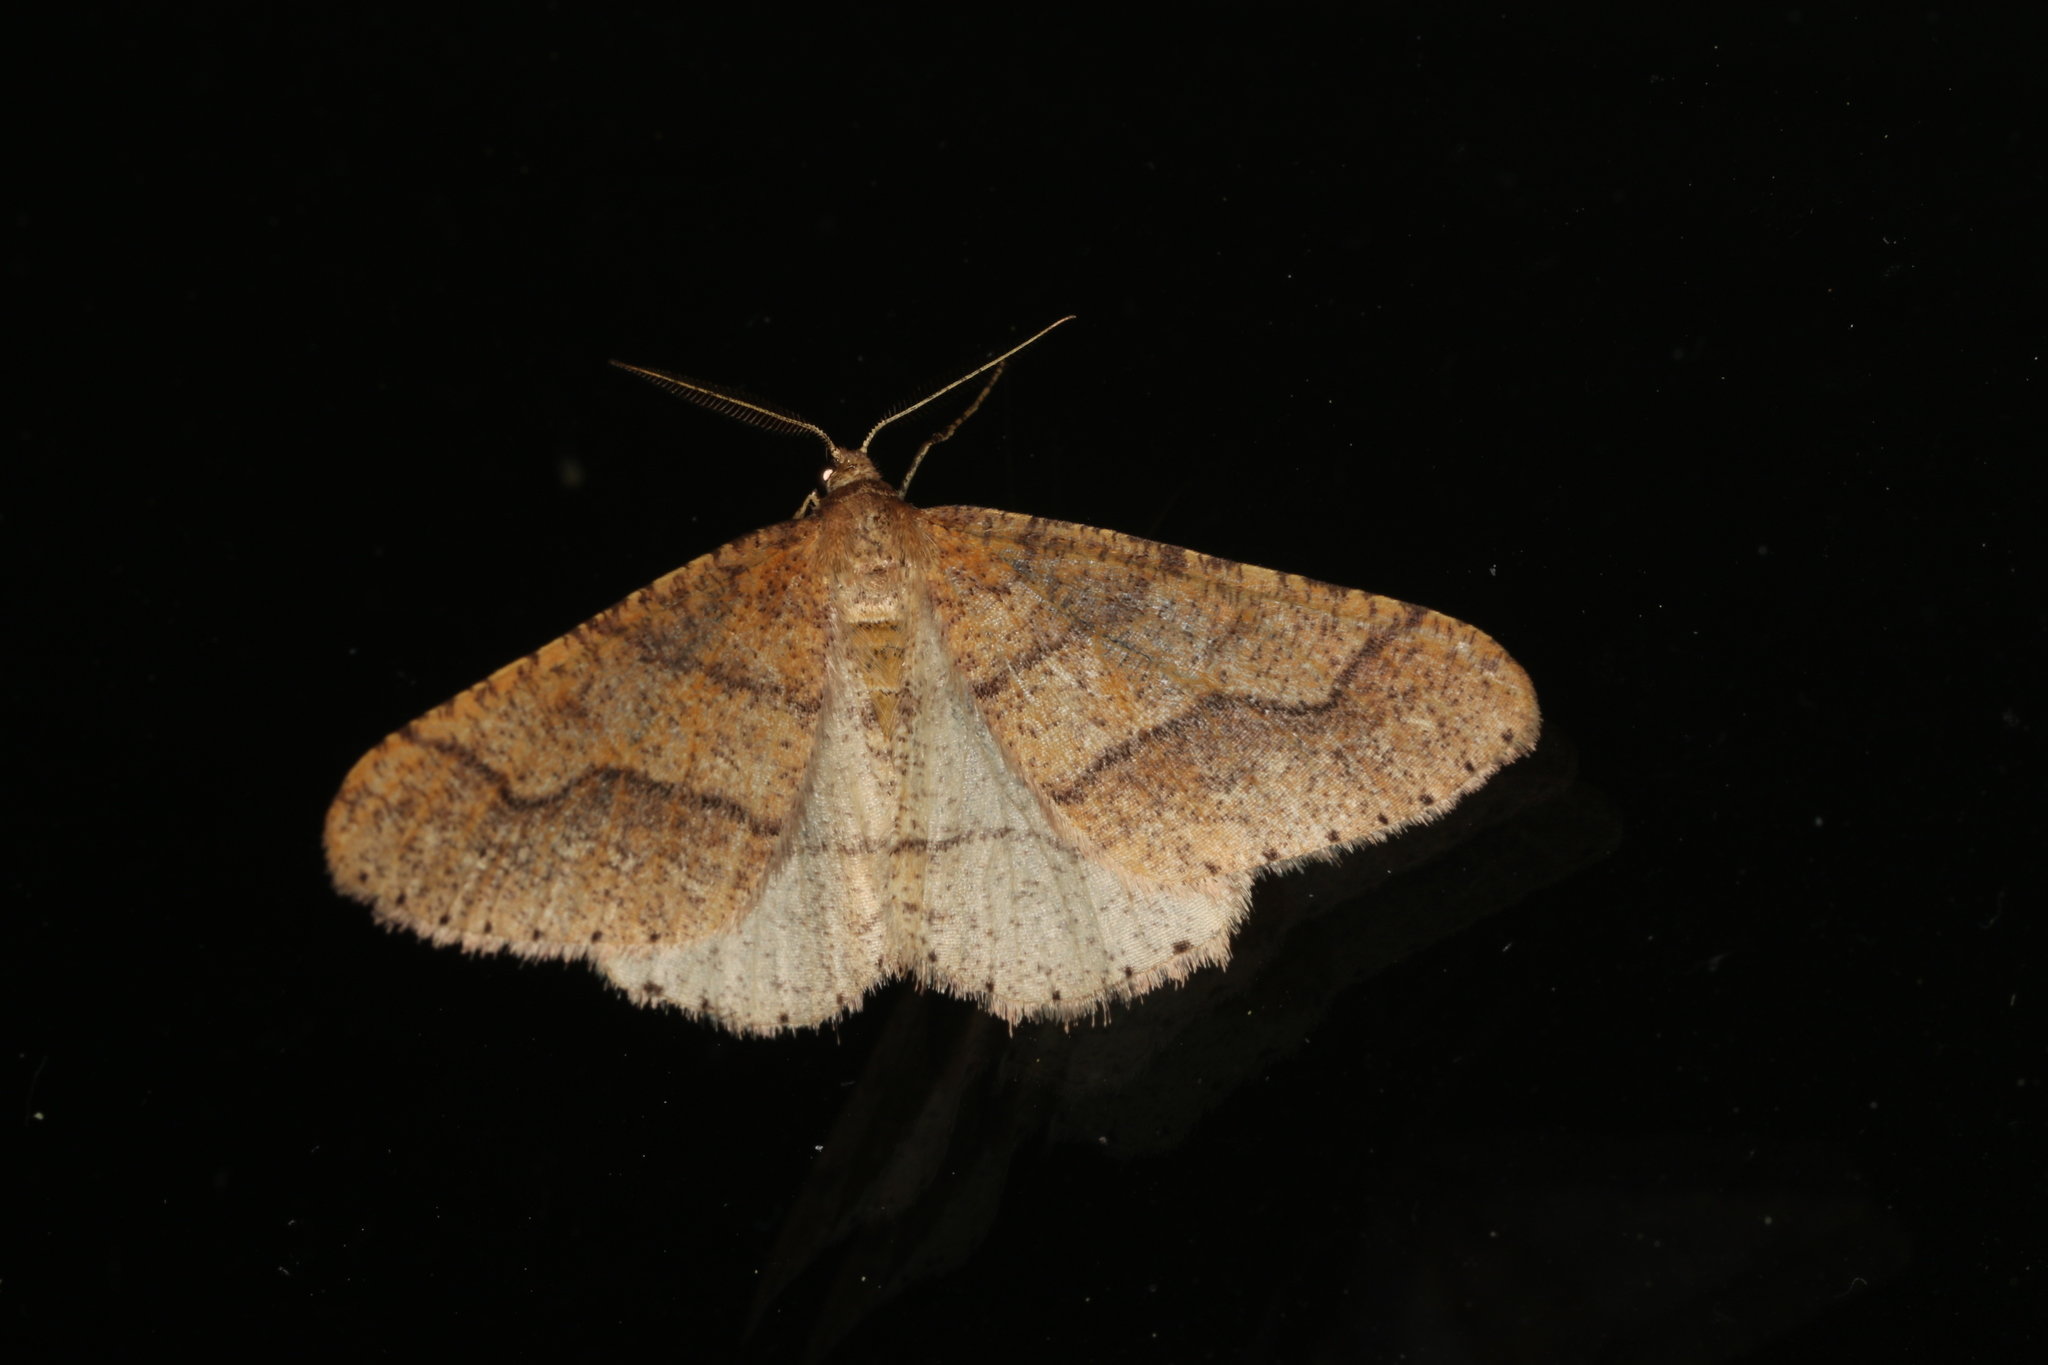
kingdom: Animalia
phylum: Arthropoda
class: Insecta
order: Lepidoptera
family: Geometridae
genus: Agriopis
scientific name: Agriopis marginaria
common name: Dotted border
